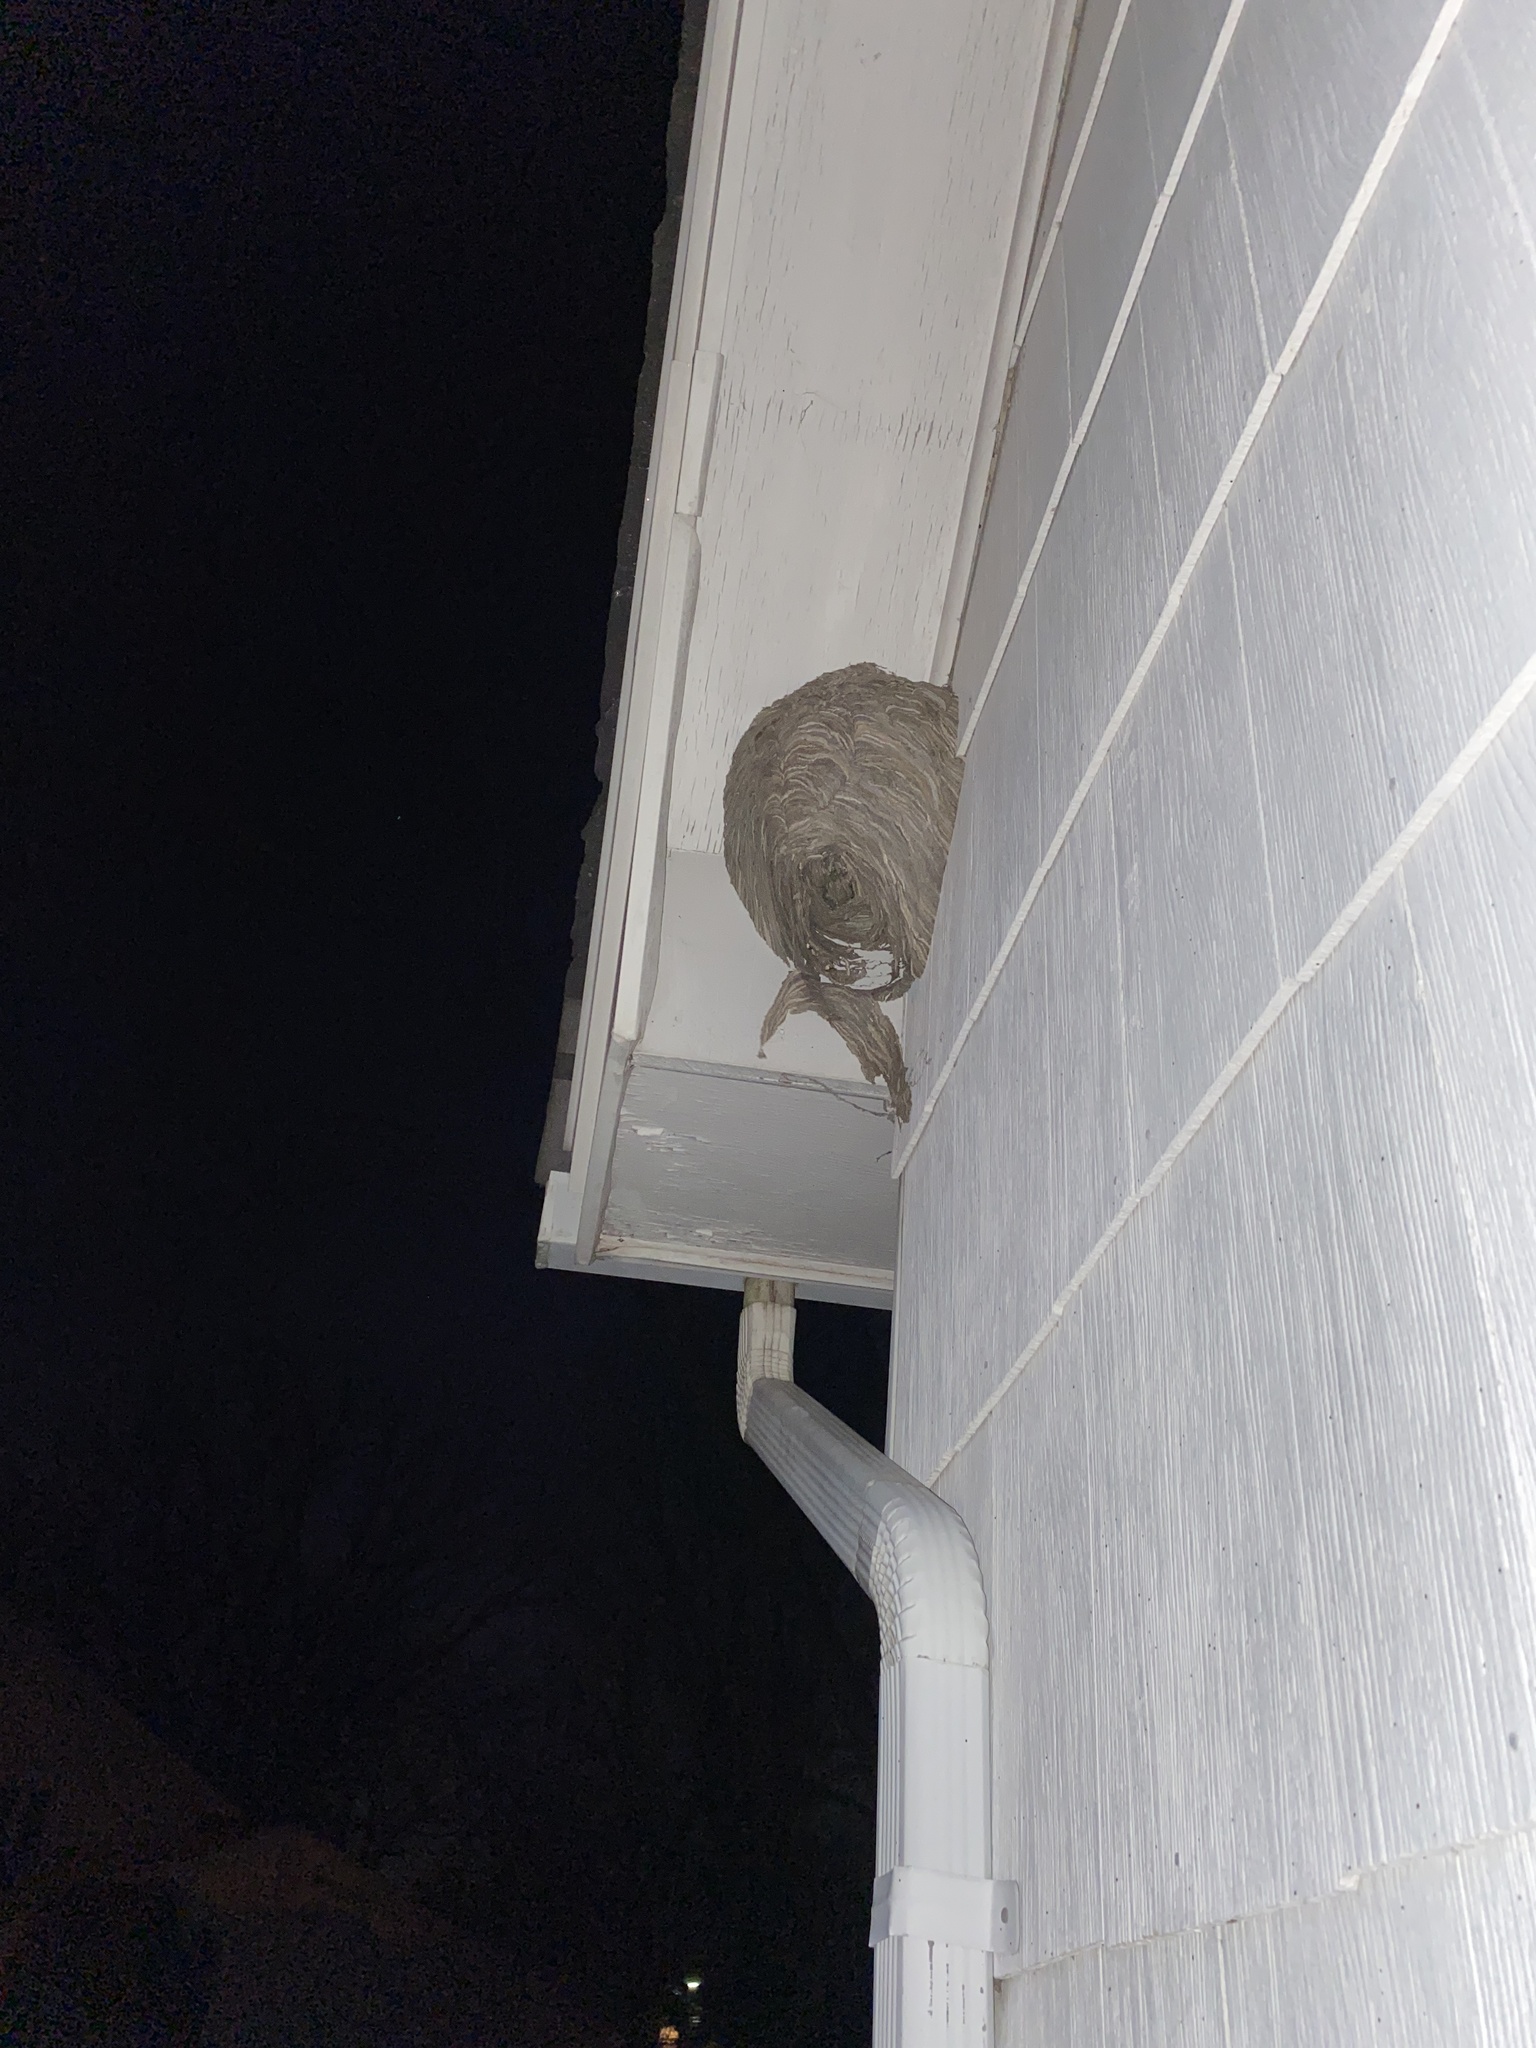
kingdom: Animalia
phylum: Arthropoda
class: Insecta
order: Hymenoptera
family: Vespidae
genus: Dolichovespula
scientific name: Dolichovespula maculata
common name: Bald-faced hornet
